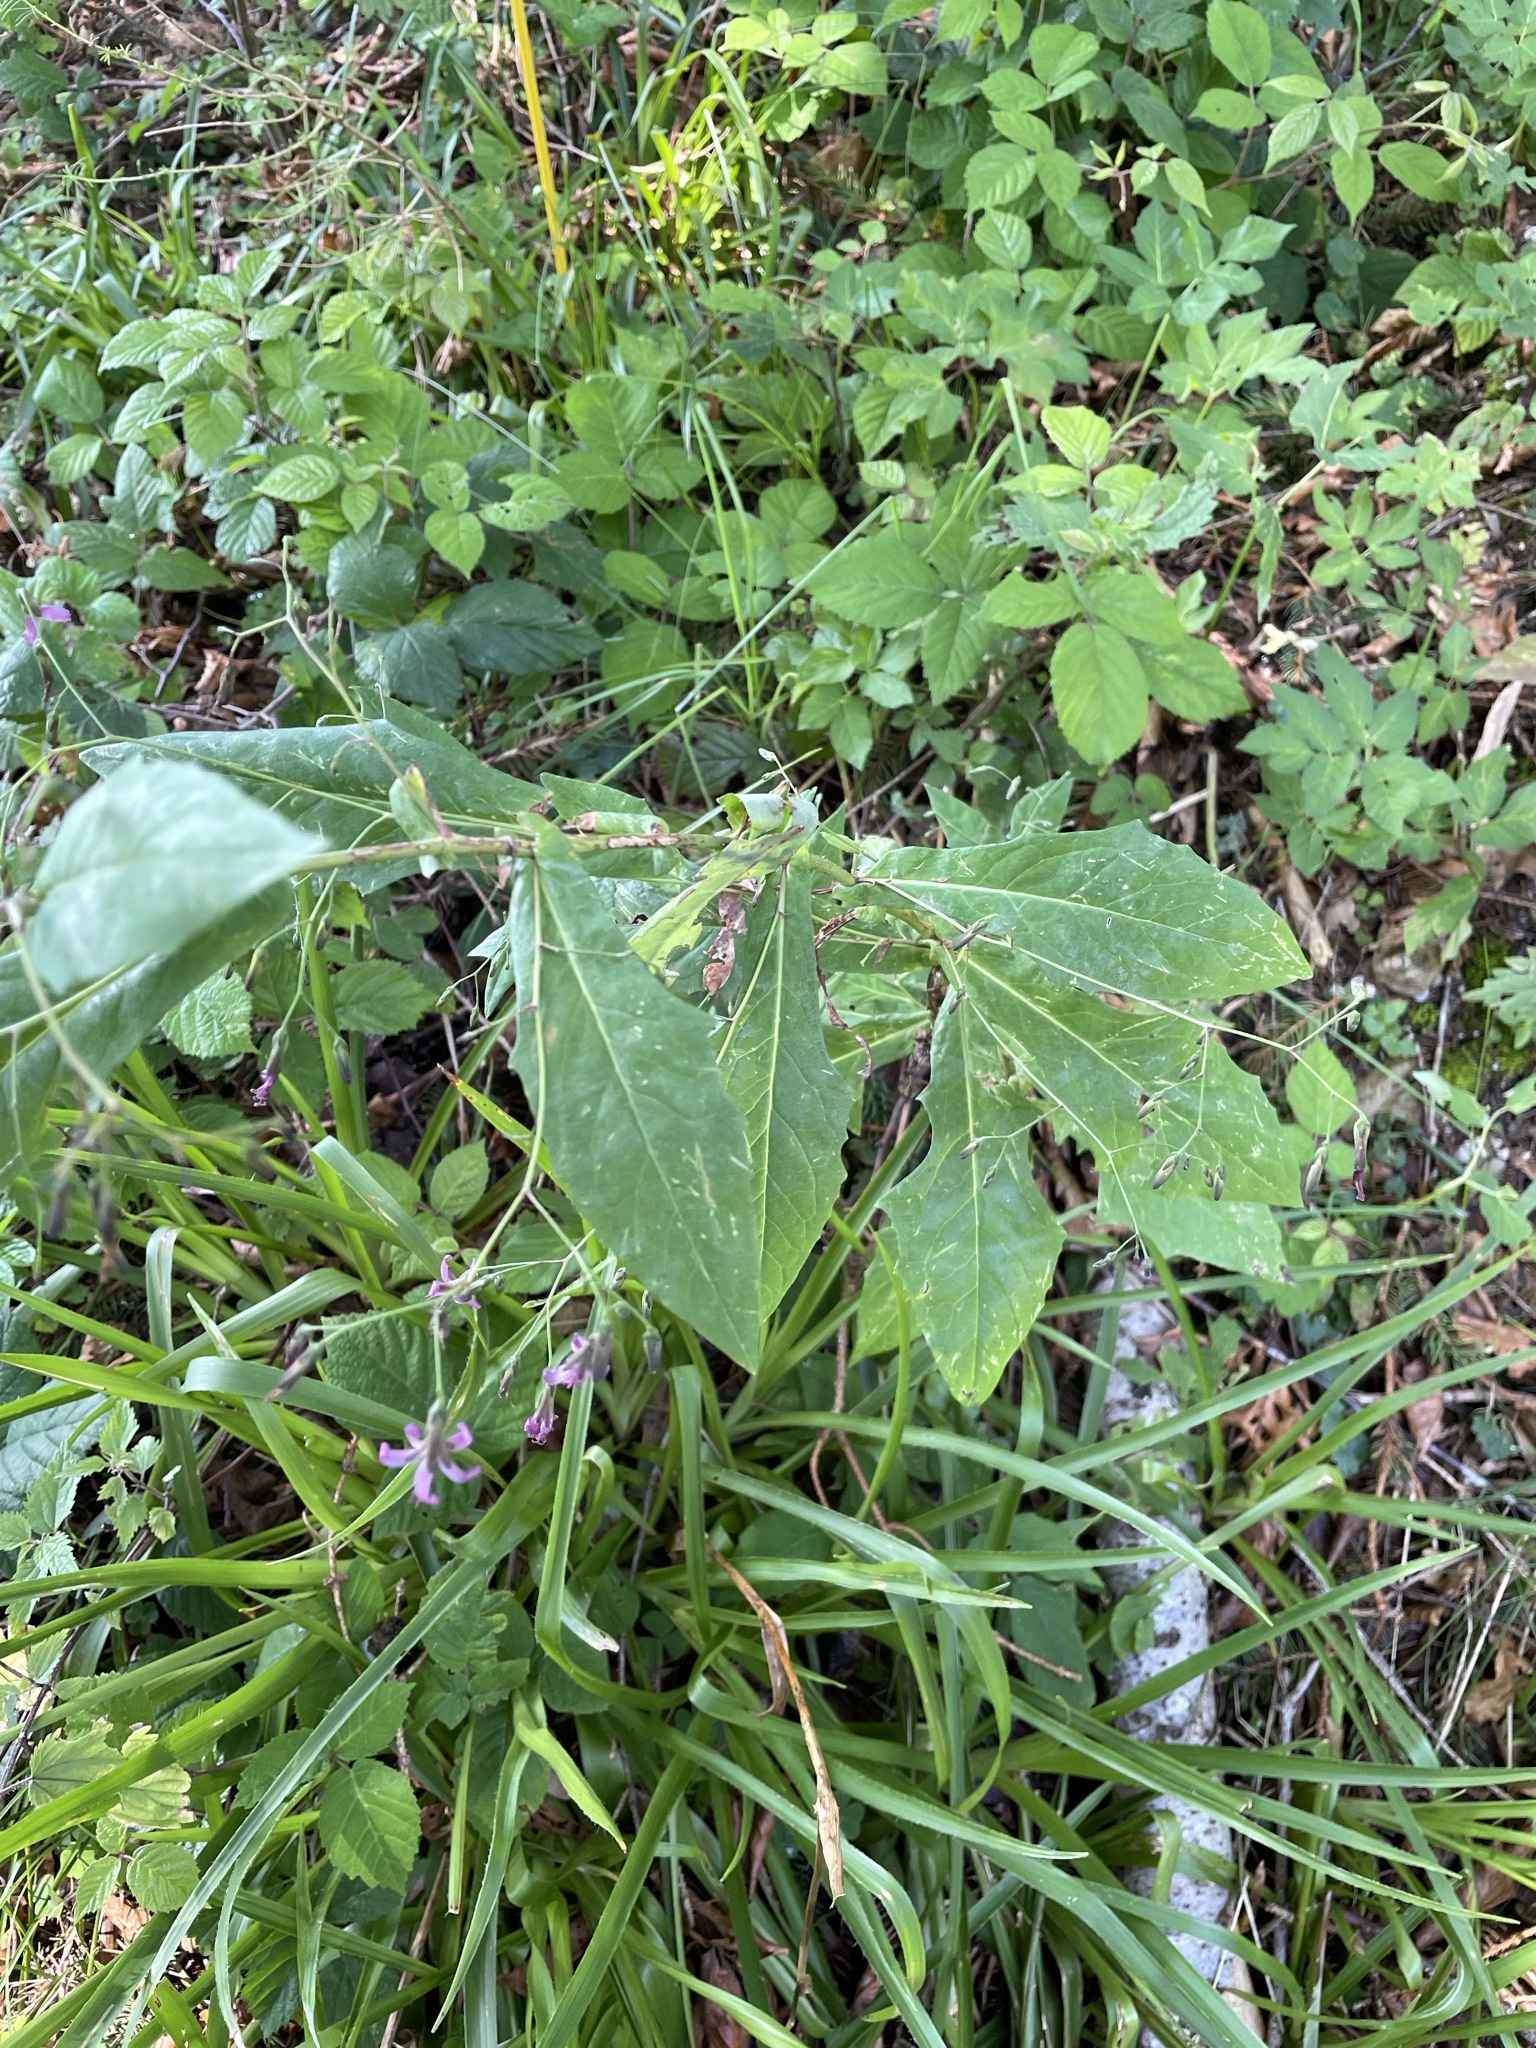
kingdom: Plantae
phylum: Tracheophyta
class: Magnoliopsida
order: Asterales
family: Asteraceae
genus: Prenanthes
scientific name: Prenanthes purpurea
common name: Purple lettuce
